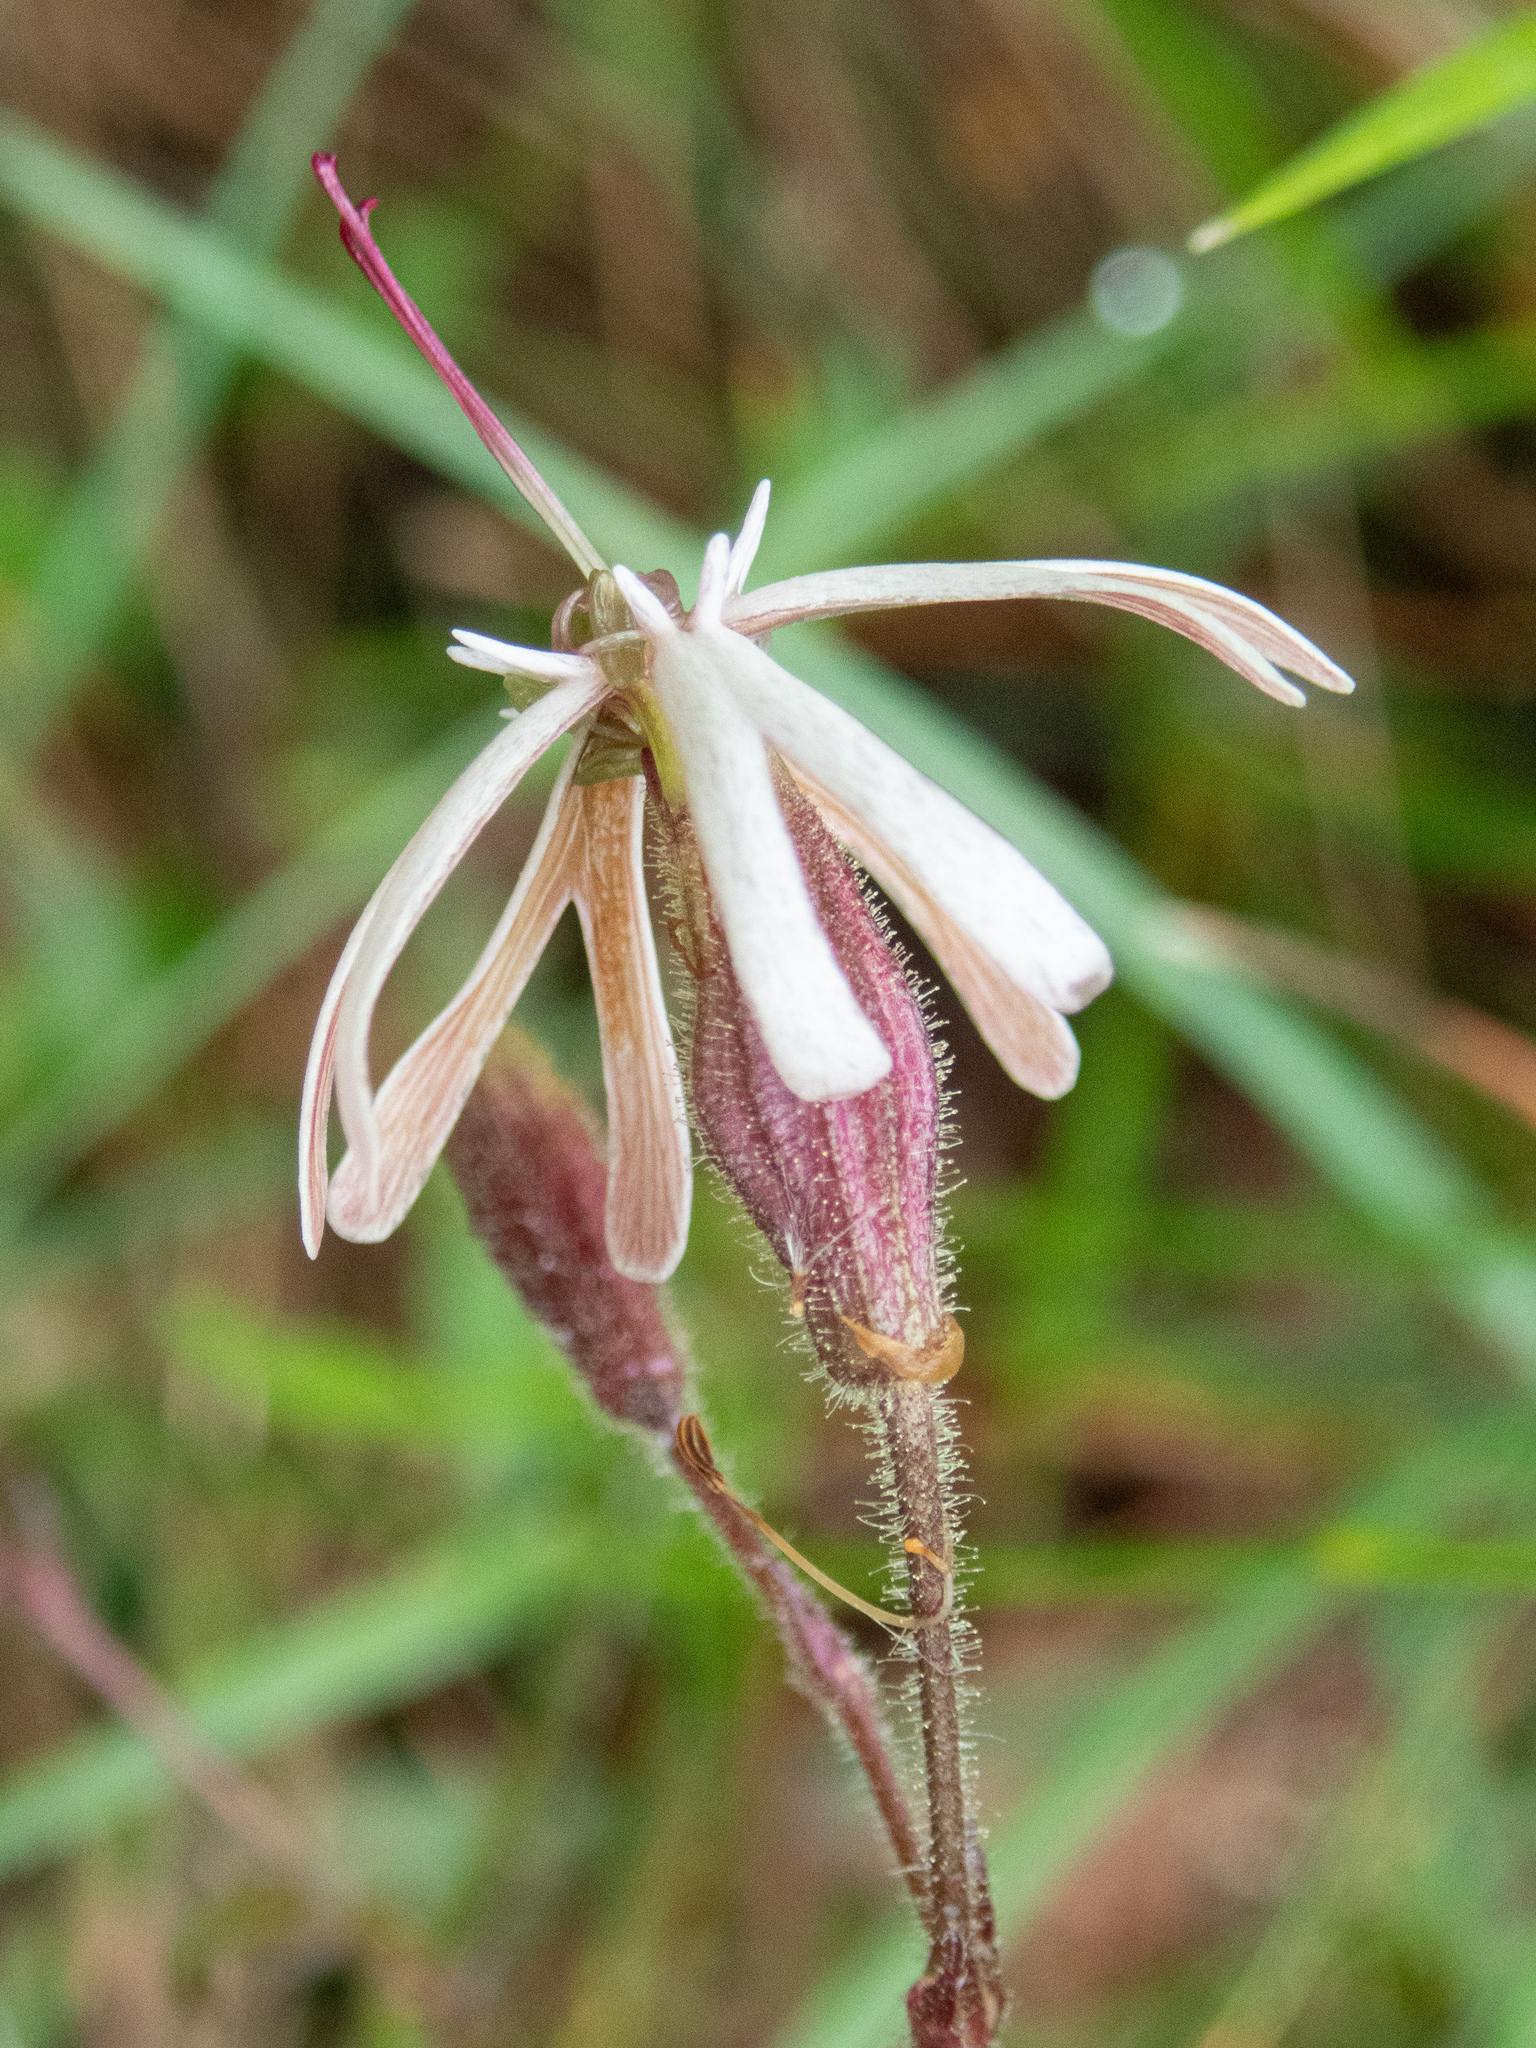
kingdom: Plantae
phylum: Tracheophyta
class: Magnoliopsida
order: Caryophyllales
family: Caryophyllaceae
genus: Silene
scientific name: Silene nutans
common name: Nottingham catchfly
